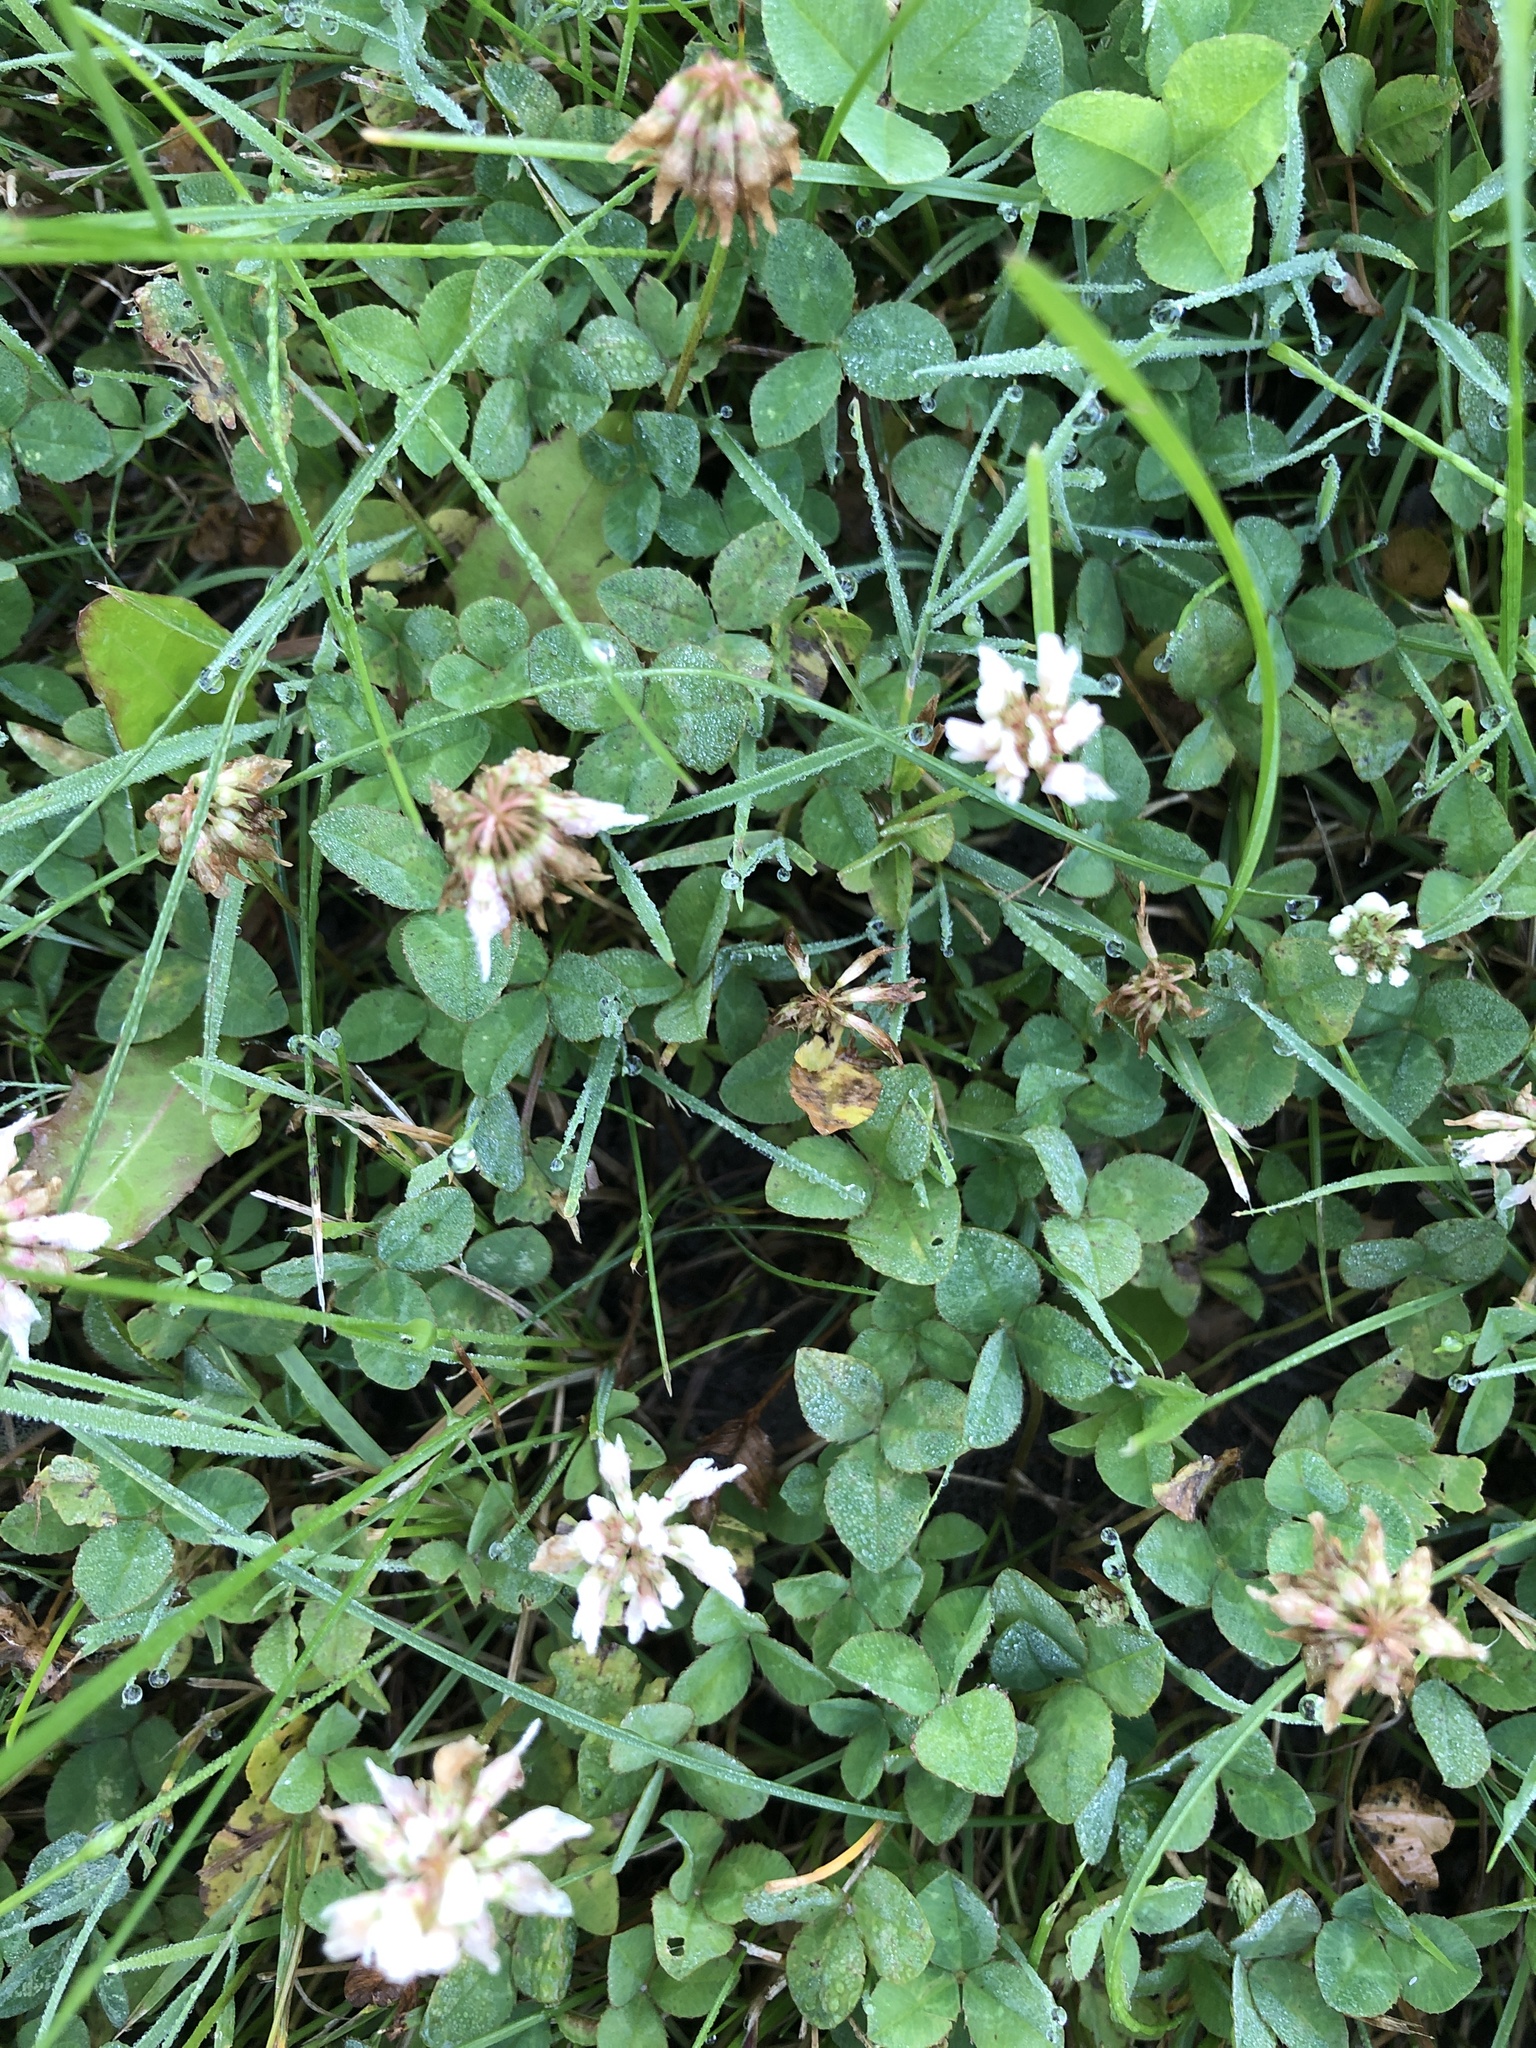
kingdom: Plantae
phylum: Tracheophyta
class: Magnoliopsida
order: Fabales
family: Fabaceae
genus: Trifolium
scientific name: Trifolium repens
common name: White clover
